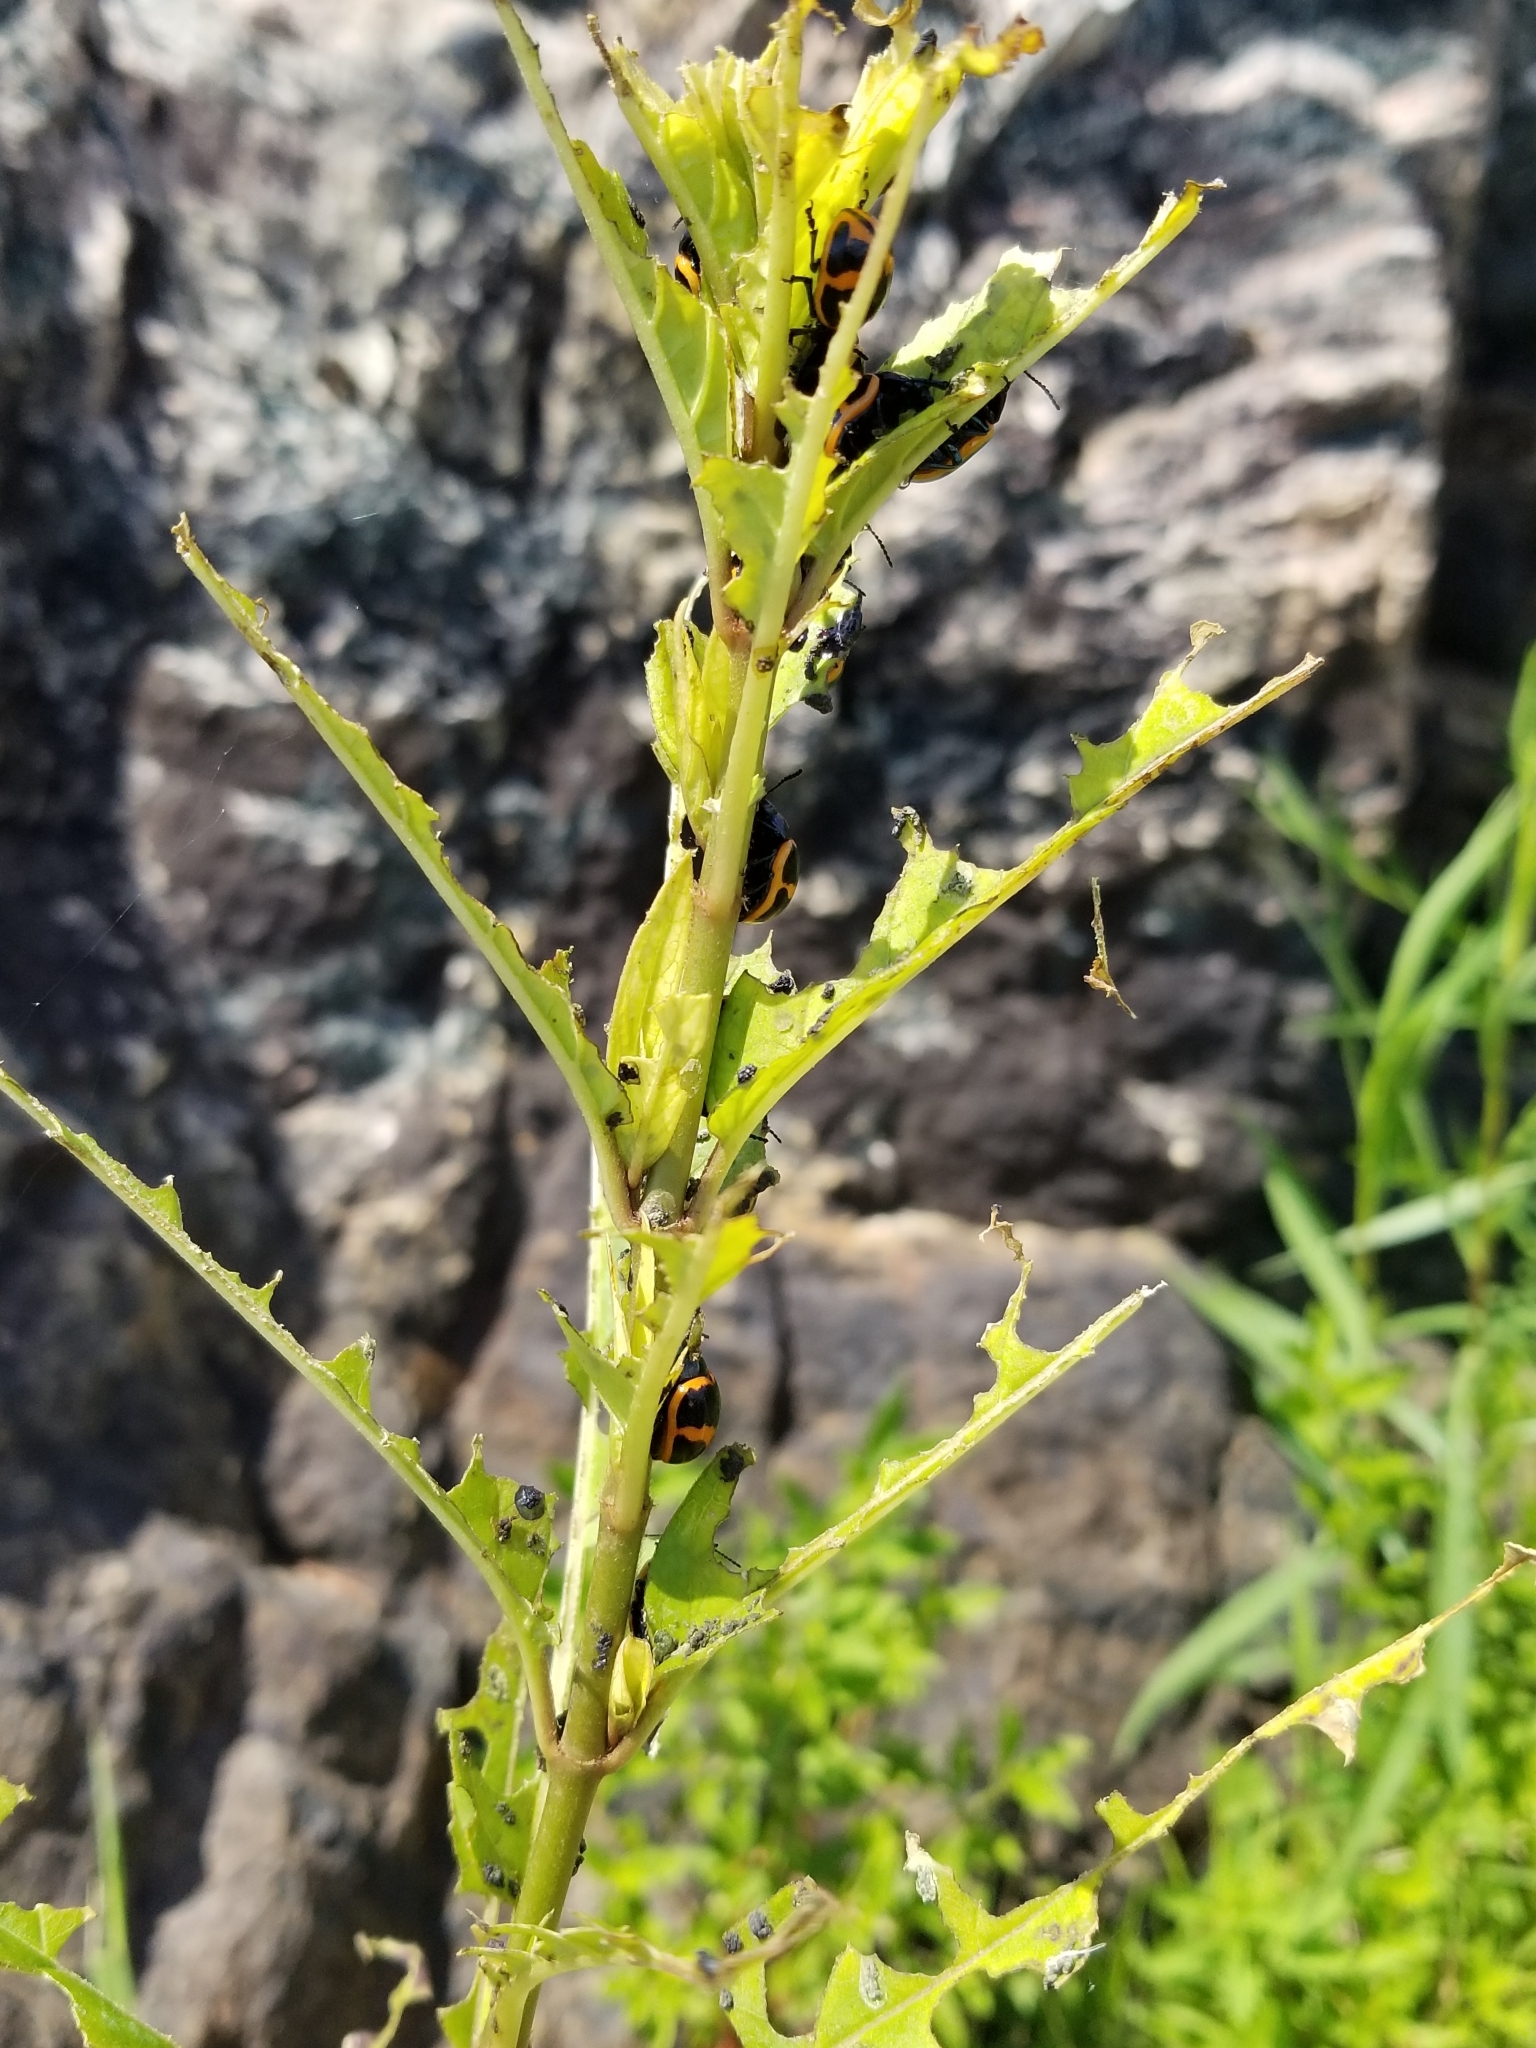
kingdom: Animalia
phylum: Arthropoda
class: Insecta
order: Coleoptera
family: Chrysomelidae
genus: Labidomera
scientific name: Labidomera clivicollis
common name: Swamp milkweed leaf beetle
